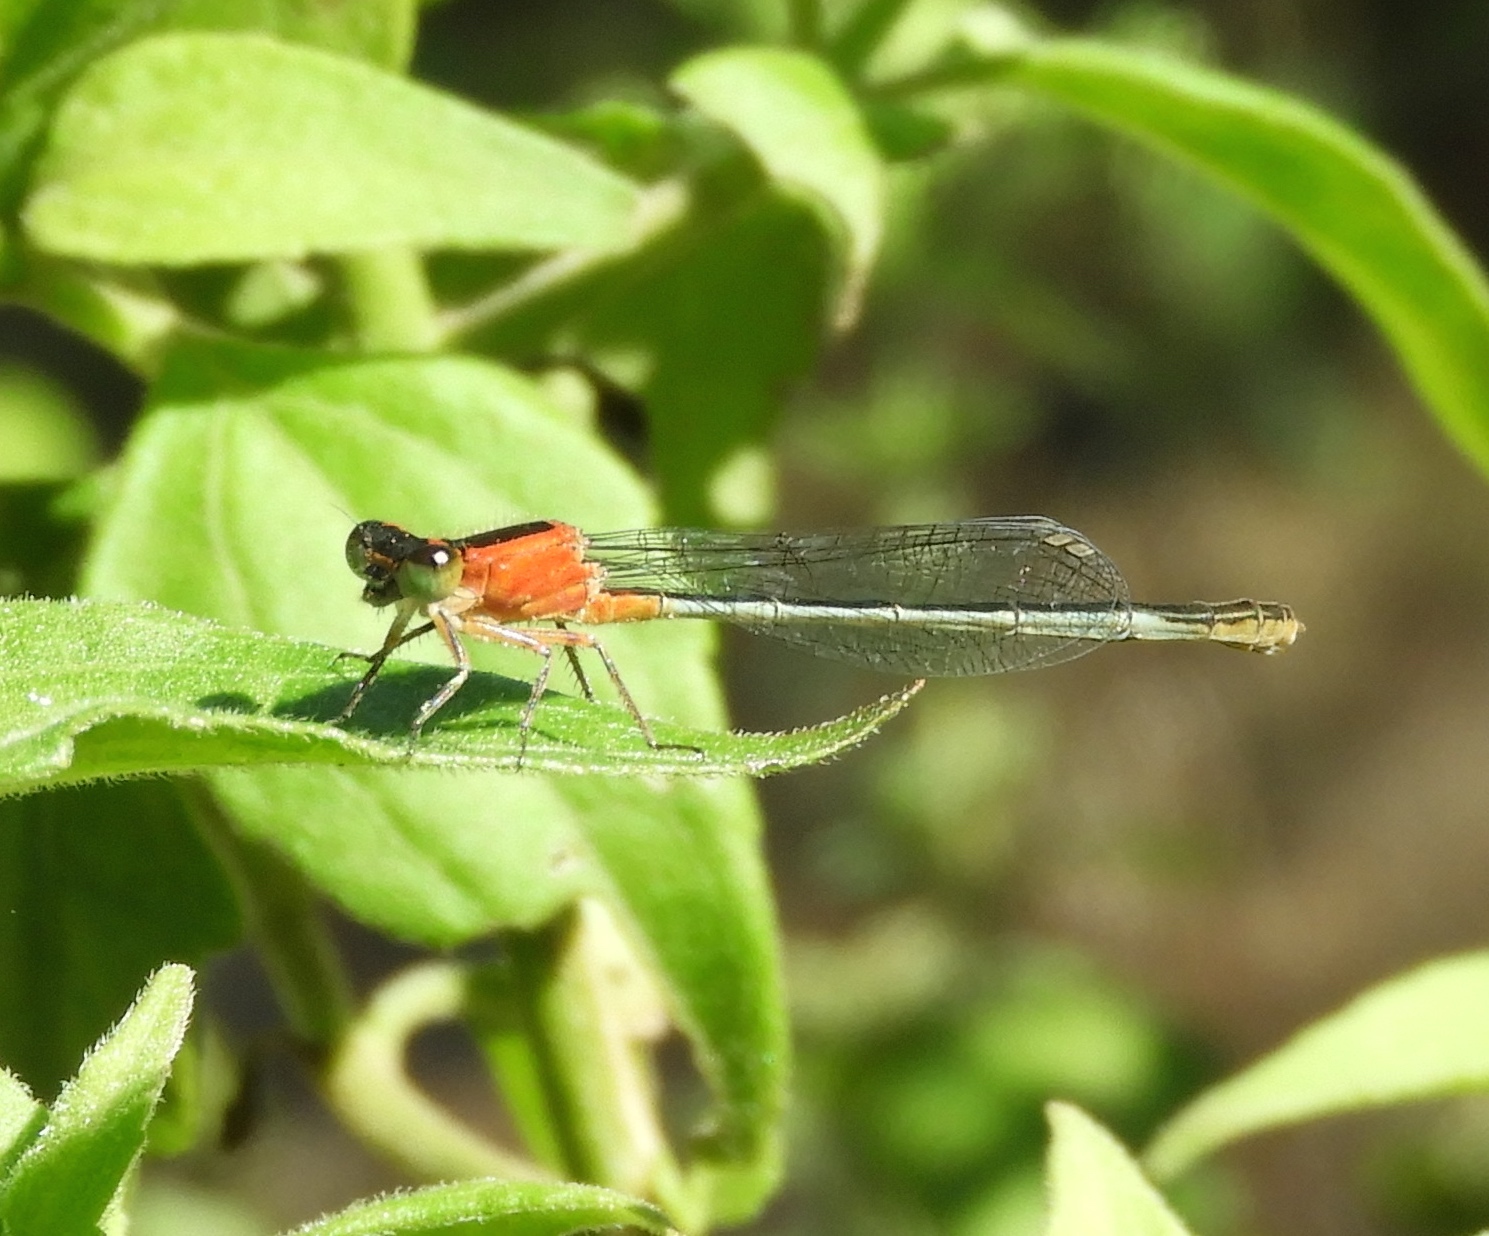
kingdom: Animalia
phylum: Arthropoda
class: Insecta
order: Odonata
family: Coenagrionidae
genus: Ischnura
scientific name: Ischnura ramburii
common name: Rambur's forktail
